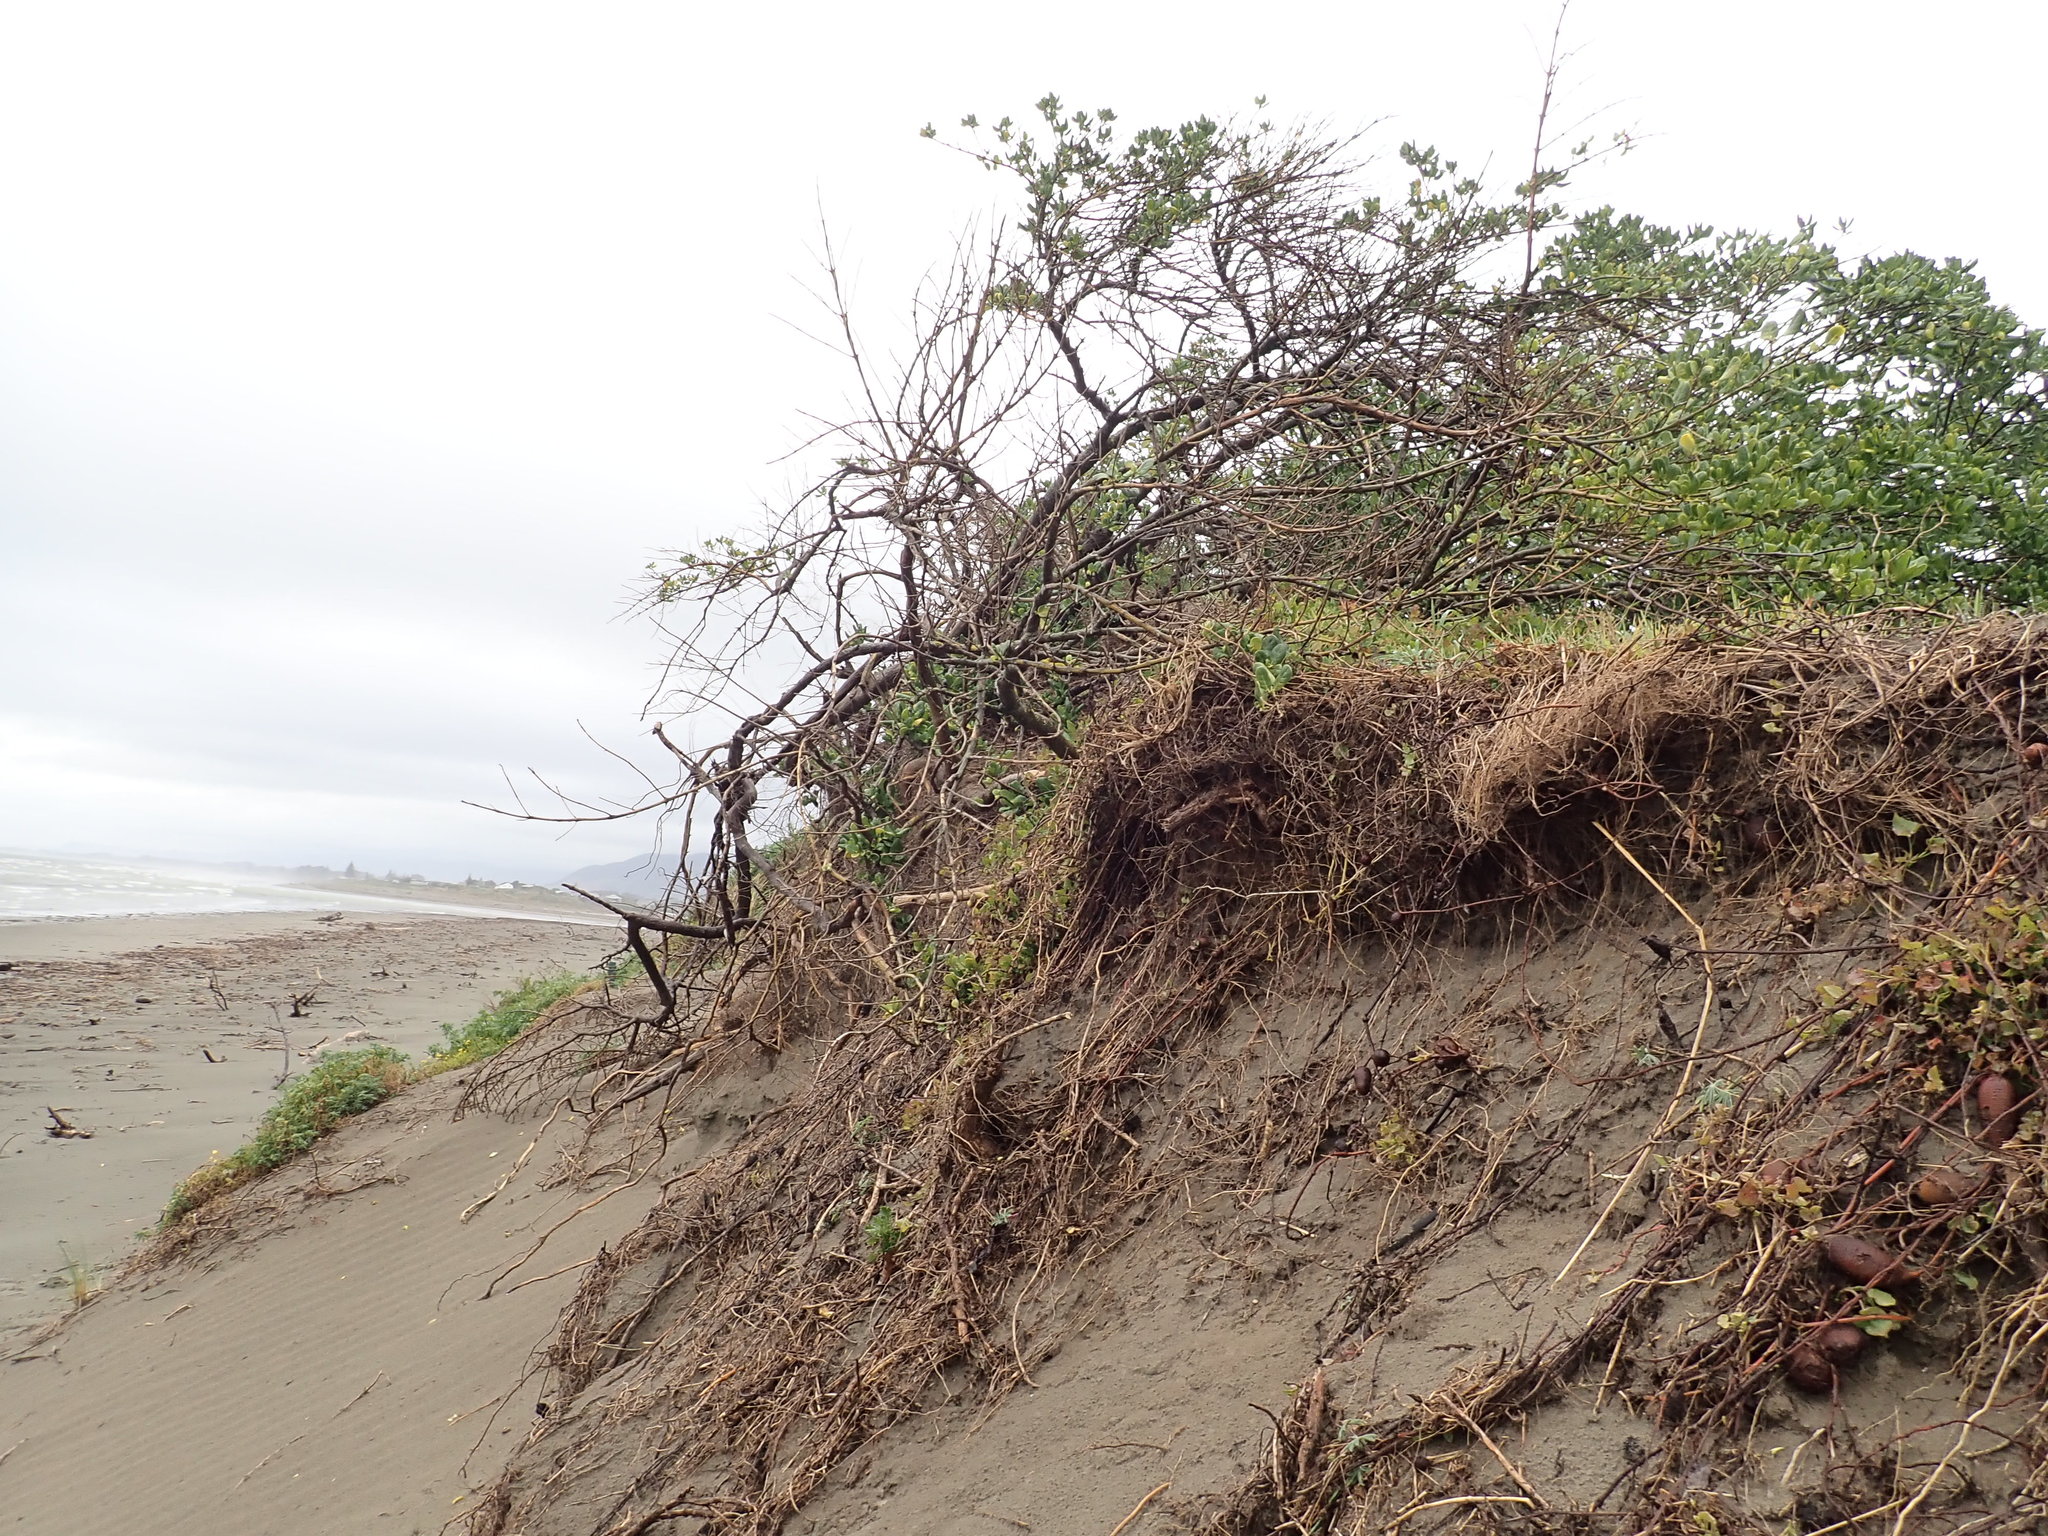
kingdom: Plantae
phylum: Tracheophyta
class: Magnoliopsida
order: Gentianales
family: Rubiaceae
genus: Coprosma
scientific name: Coprosma repens
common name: Tree bedstraw
